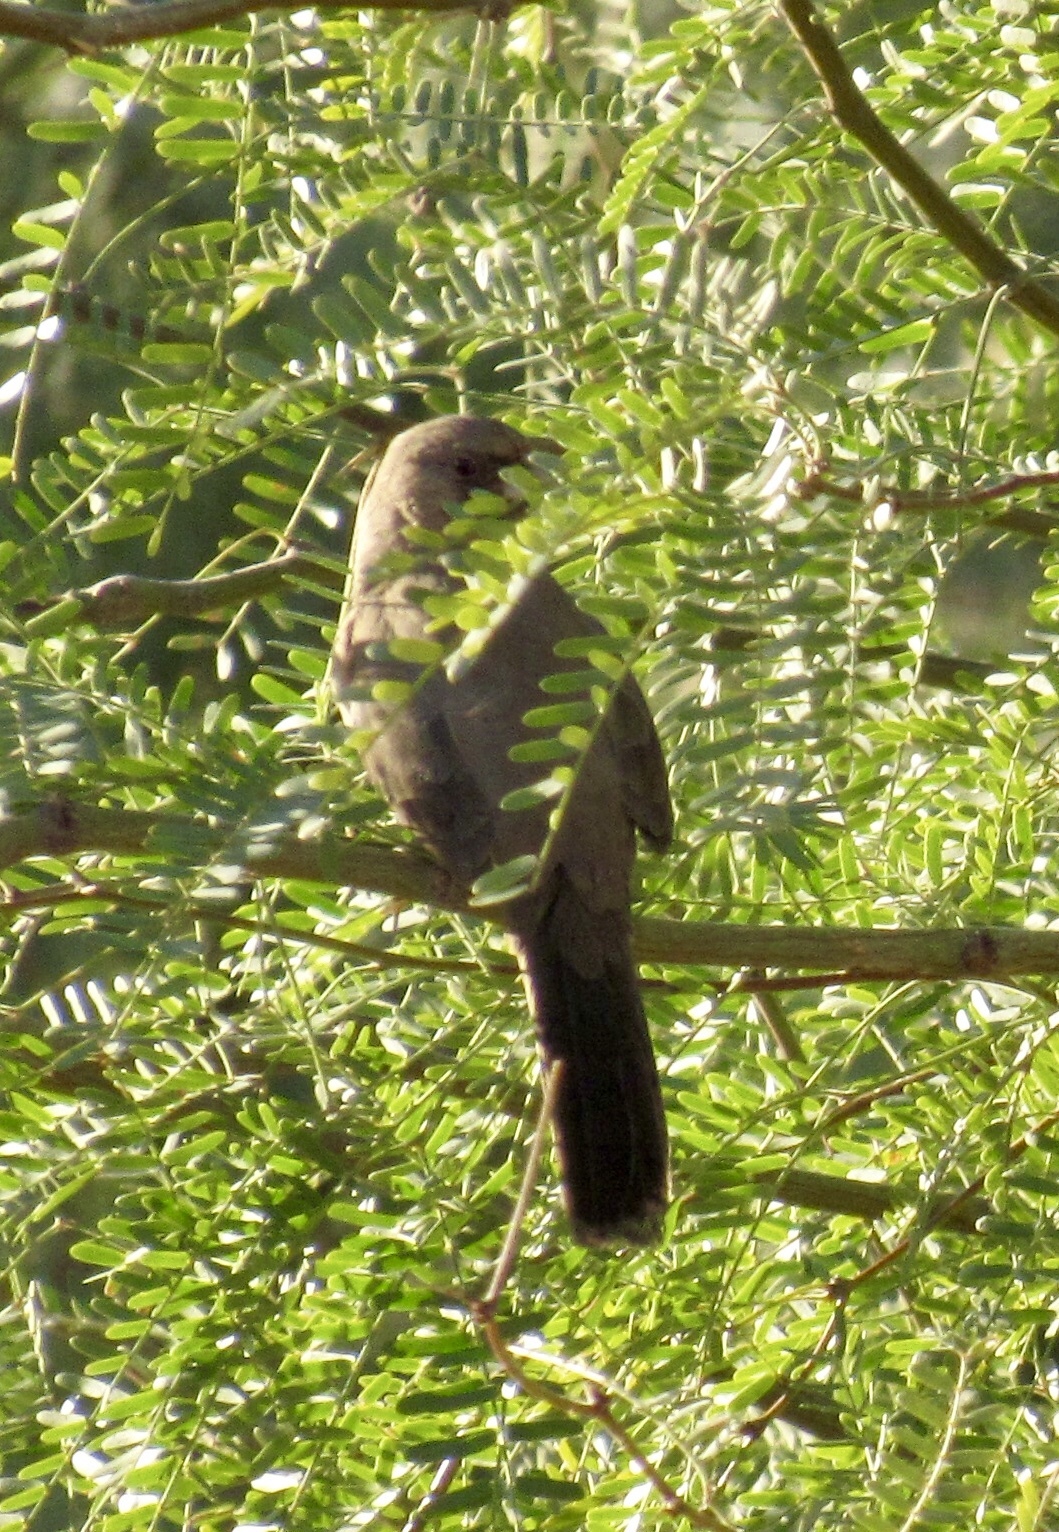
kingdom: Animalia
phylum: Chordata
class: Aves
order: Passeriformes
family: Passerellidae
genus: Melozone
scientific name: Melozone aberti
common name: Abert's towhee
